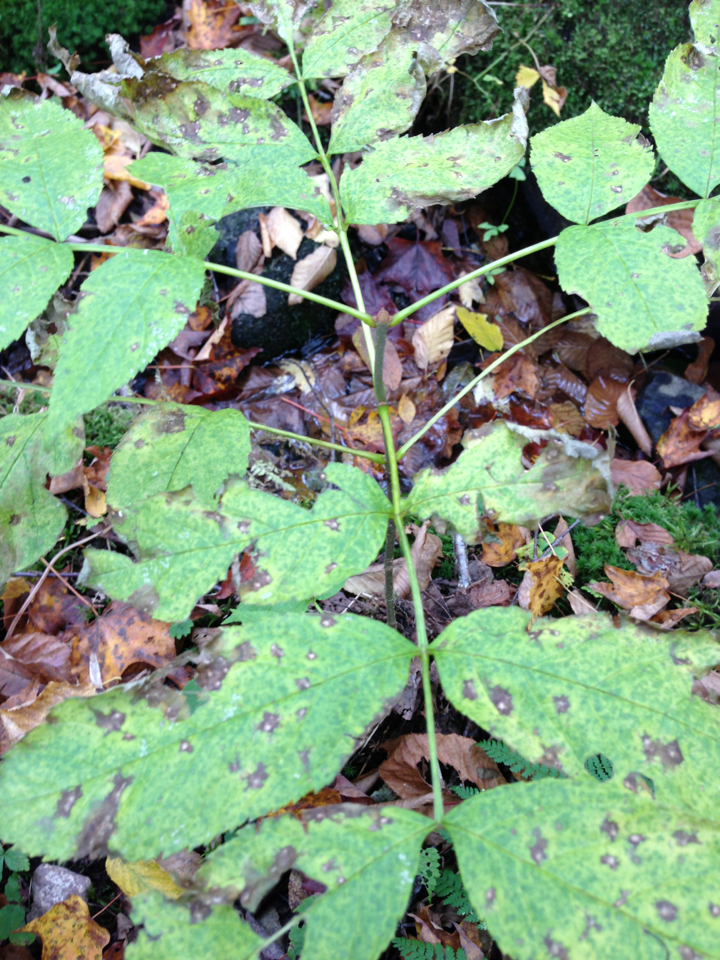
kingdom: Plantae
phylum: Tracheophyta
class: Magnoliopsida
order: Lamiales
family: Oleaceae
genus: Fraxinus
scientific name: Fraxinus nigra
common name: Black ash
